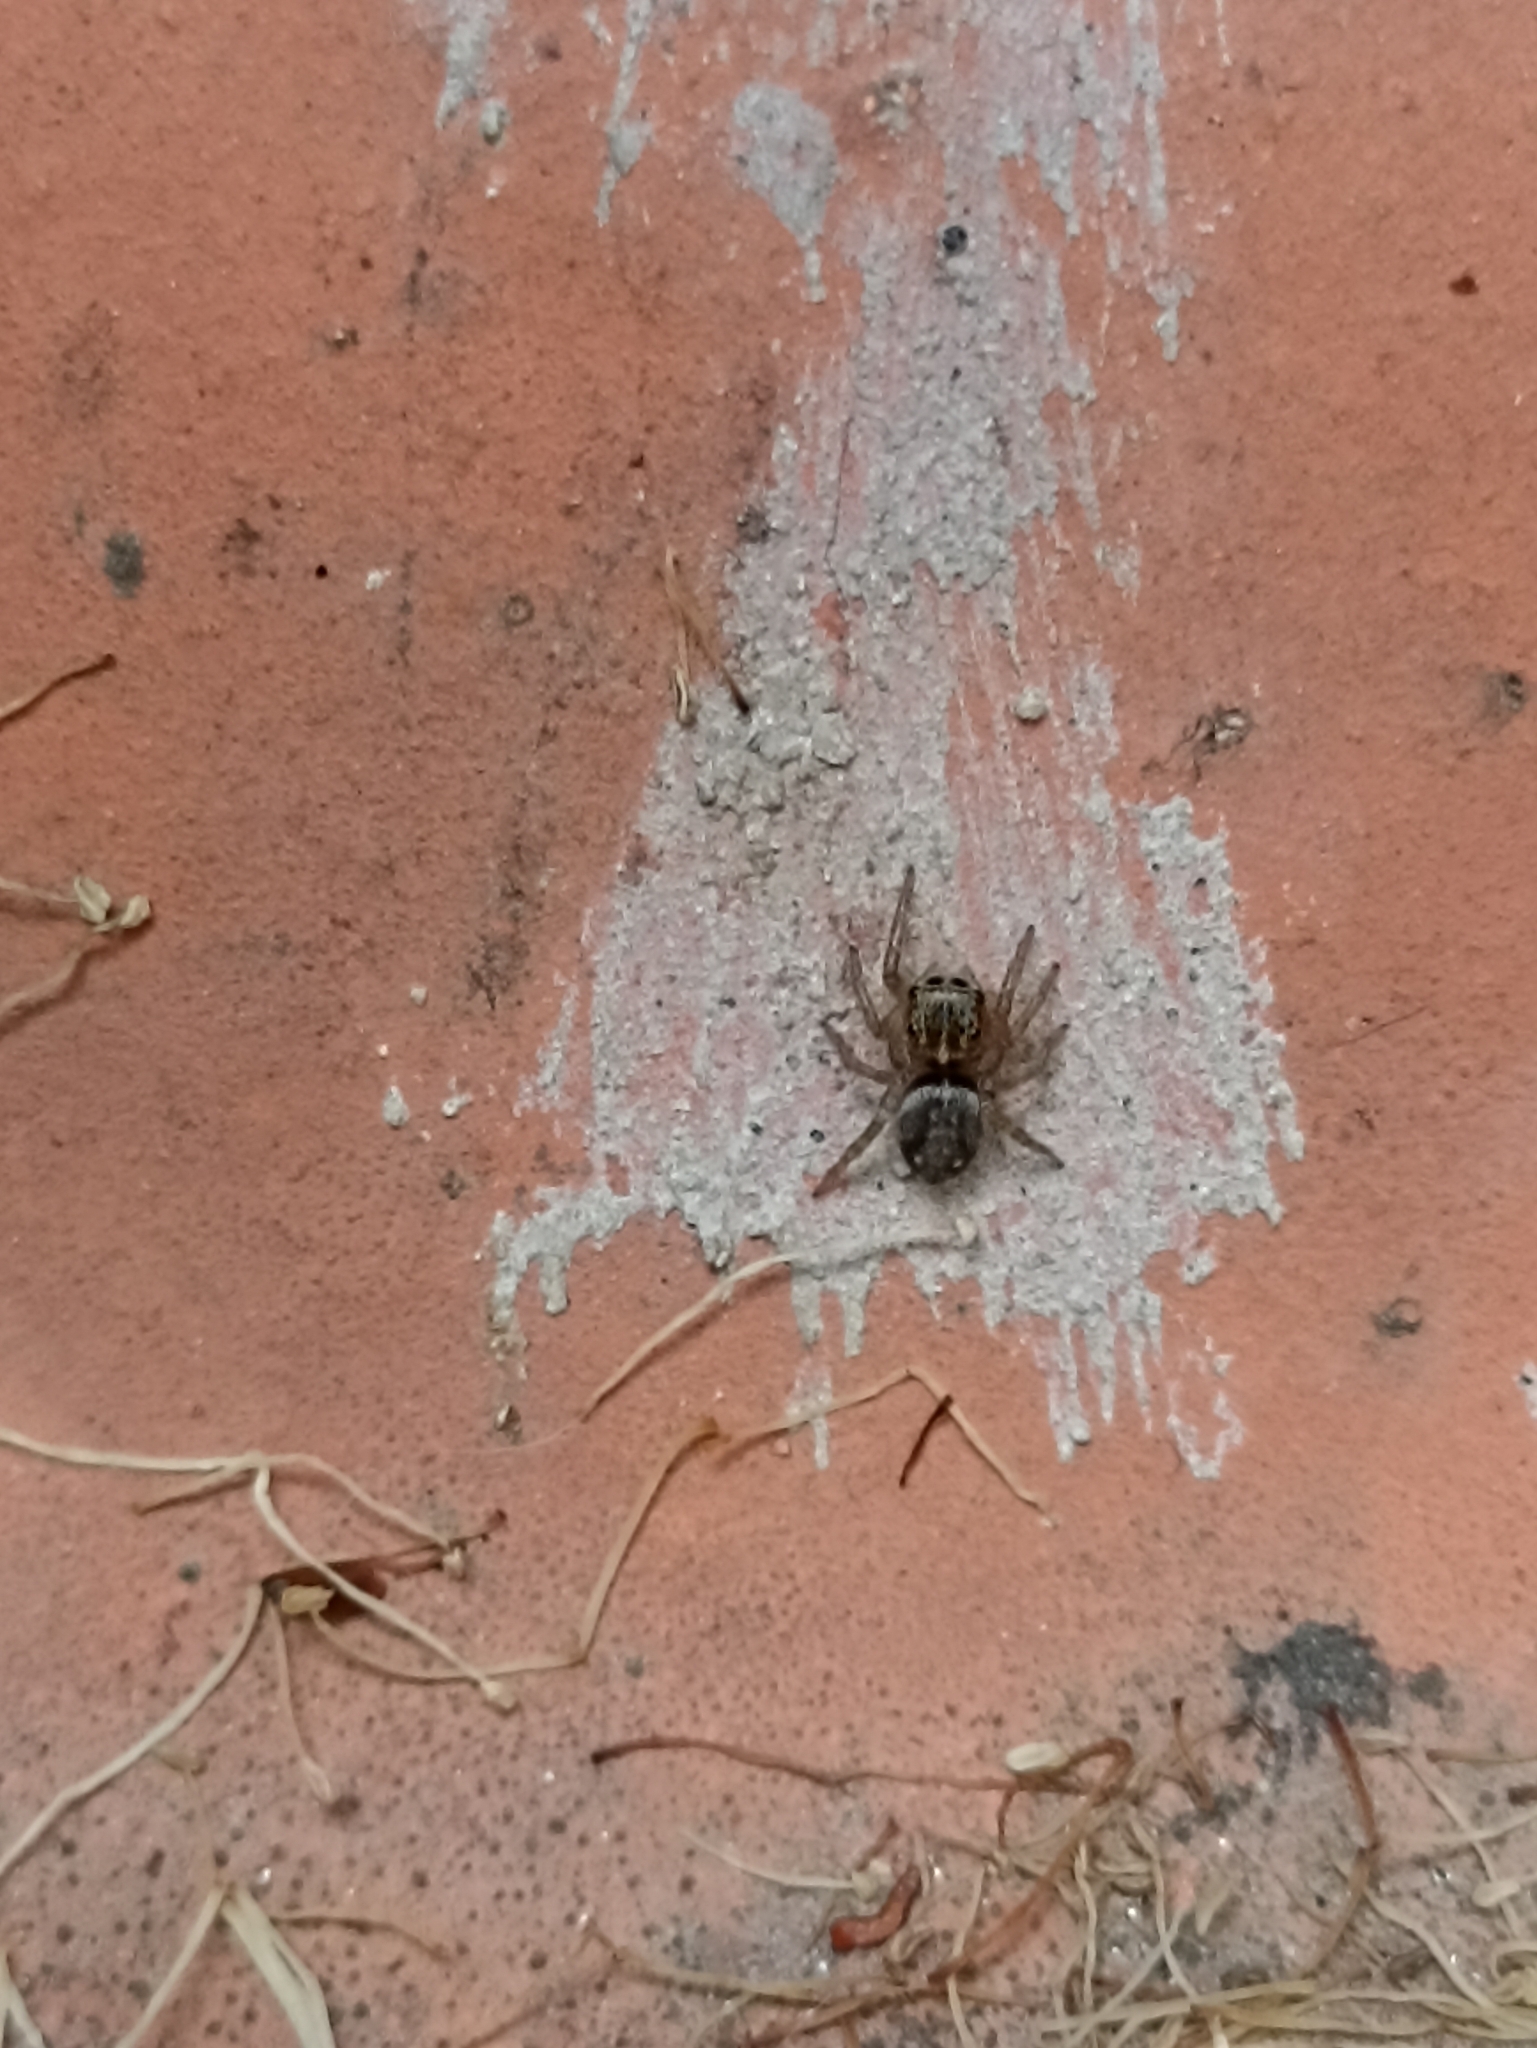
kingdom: Animalia
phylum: Arthropoda
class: Arachnida
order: Araneae
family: Salticidae
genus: Hasarius
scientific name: Hasarius adansoni
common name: Jumping spider
